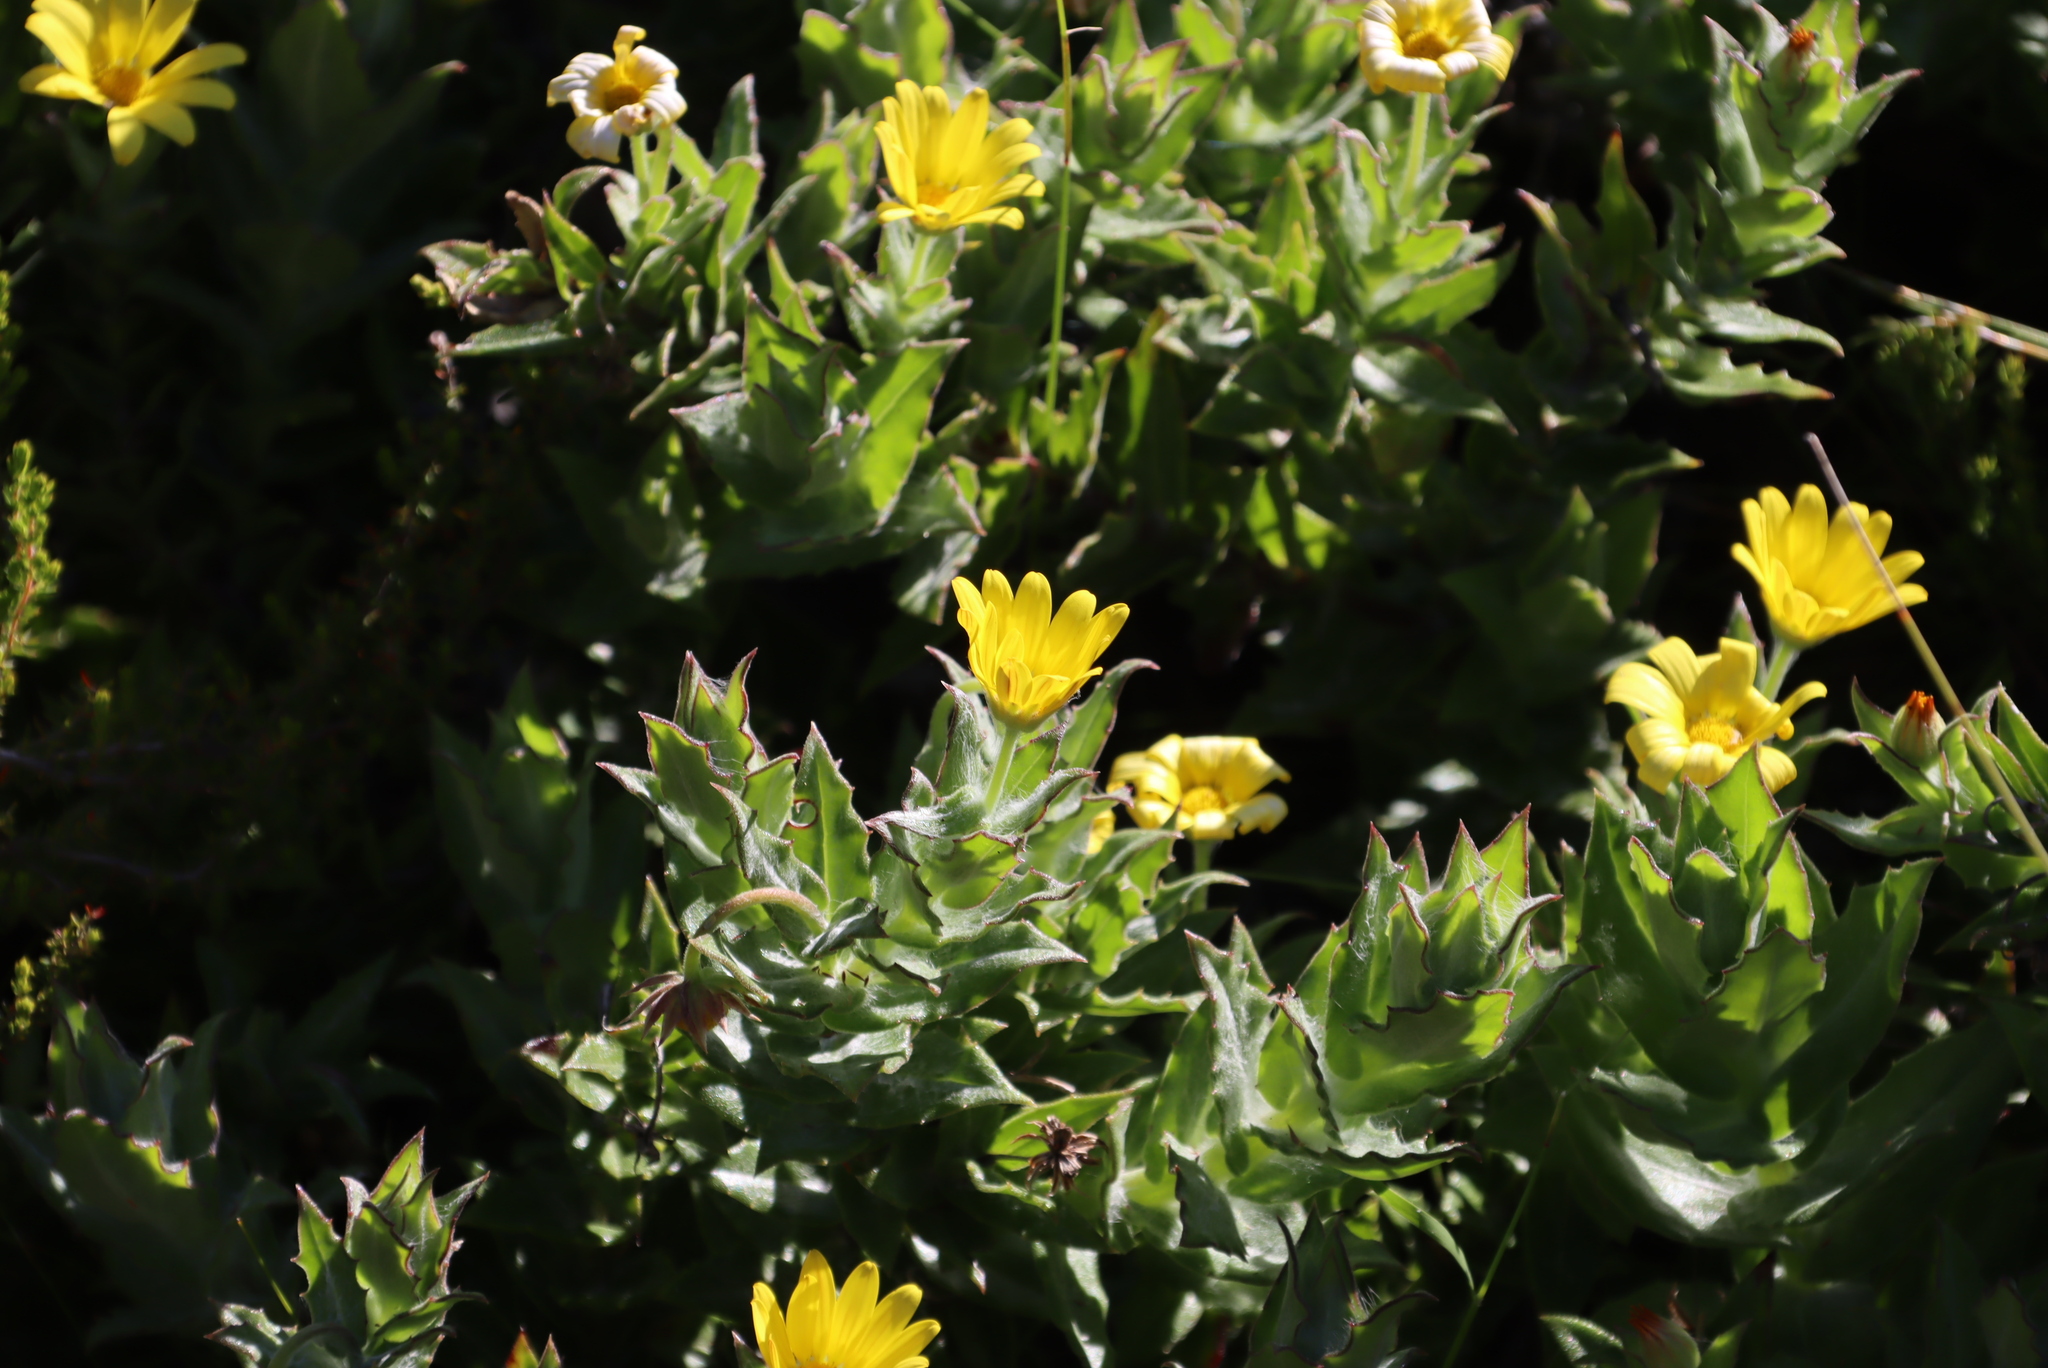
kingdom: Plantae
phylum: Tracheophyta
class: Magnoliopsida
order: Asterales
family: Asteraceae
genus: Osteospermum
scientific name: Osteospermum ilicifolium
